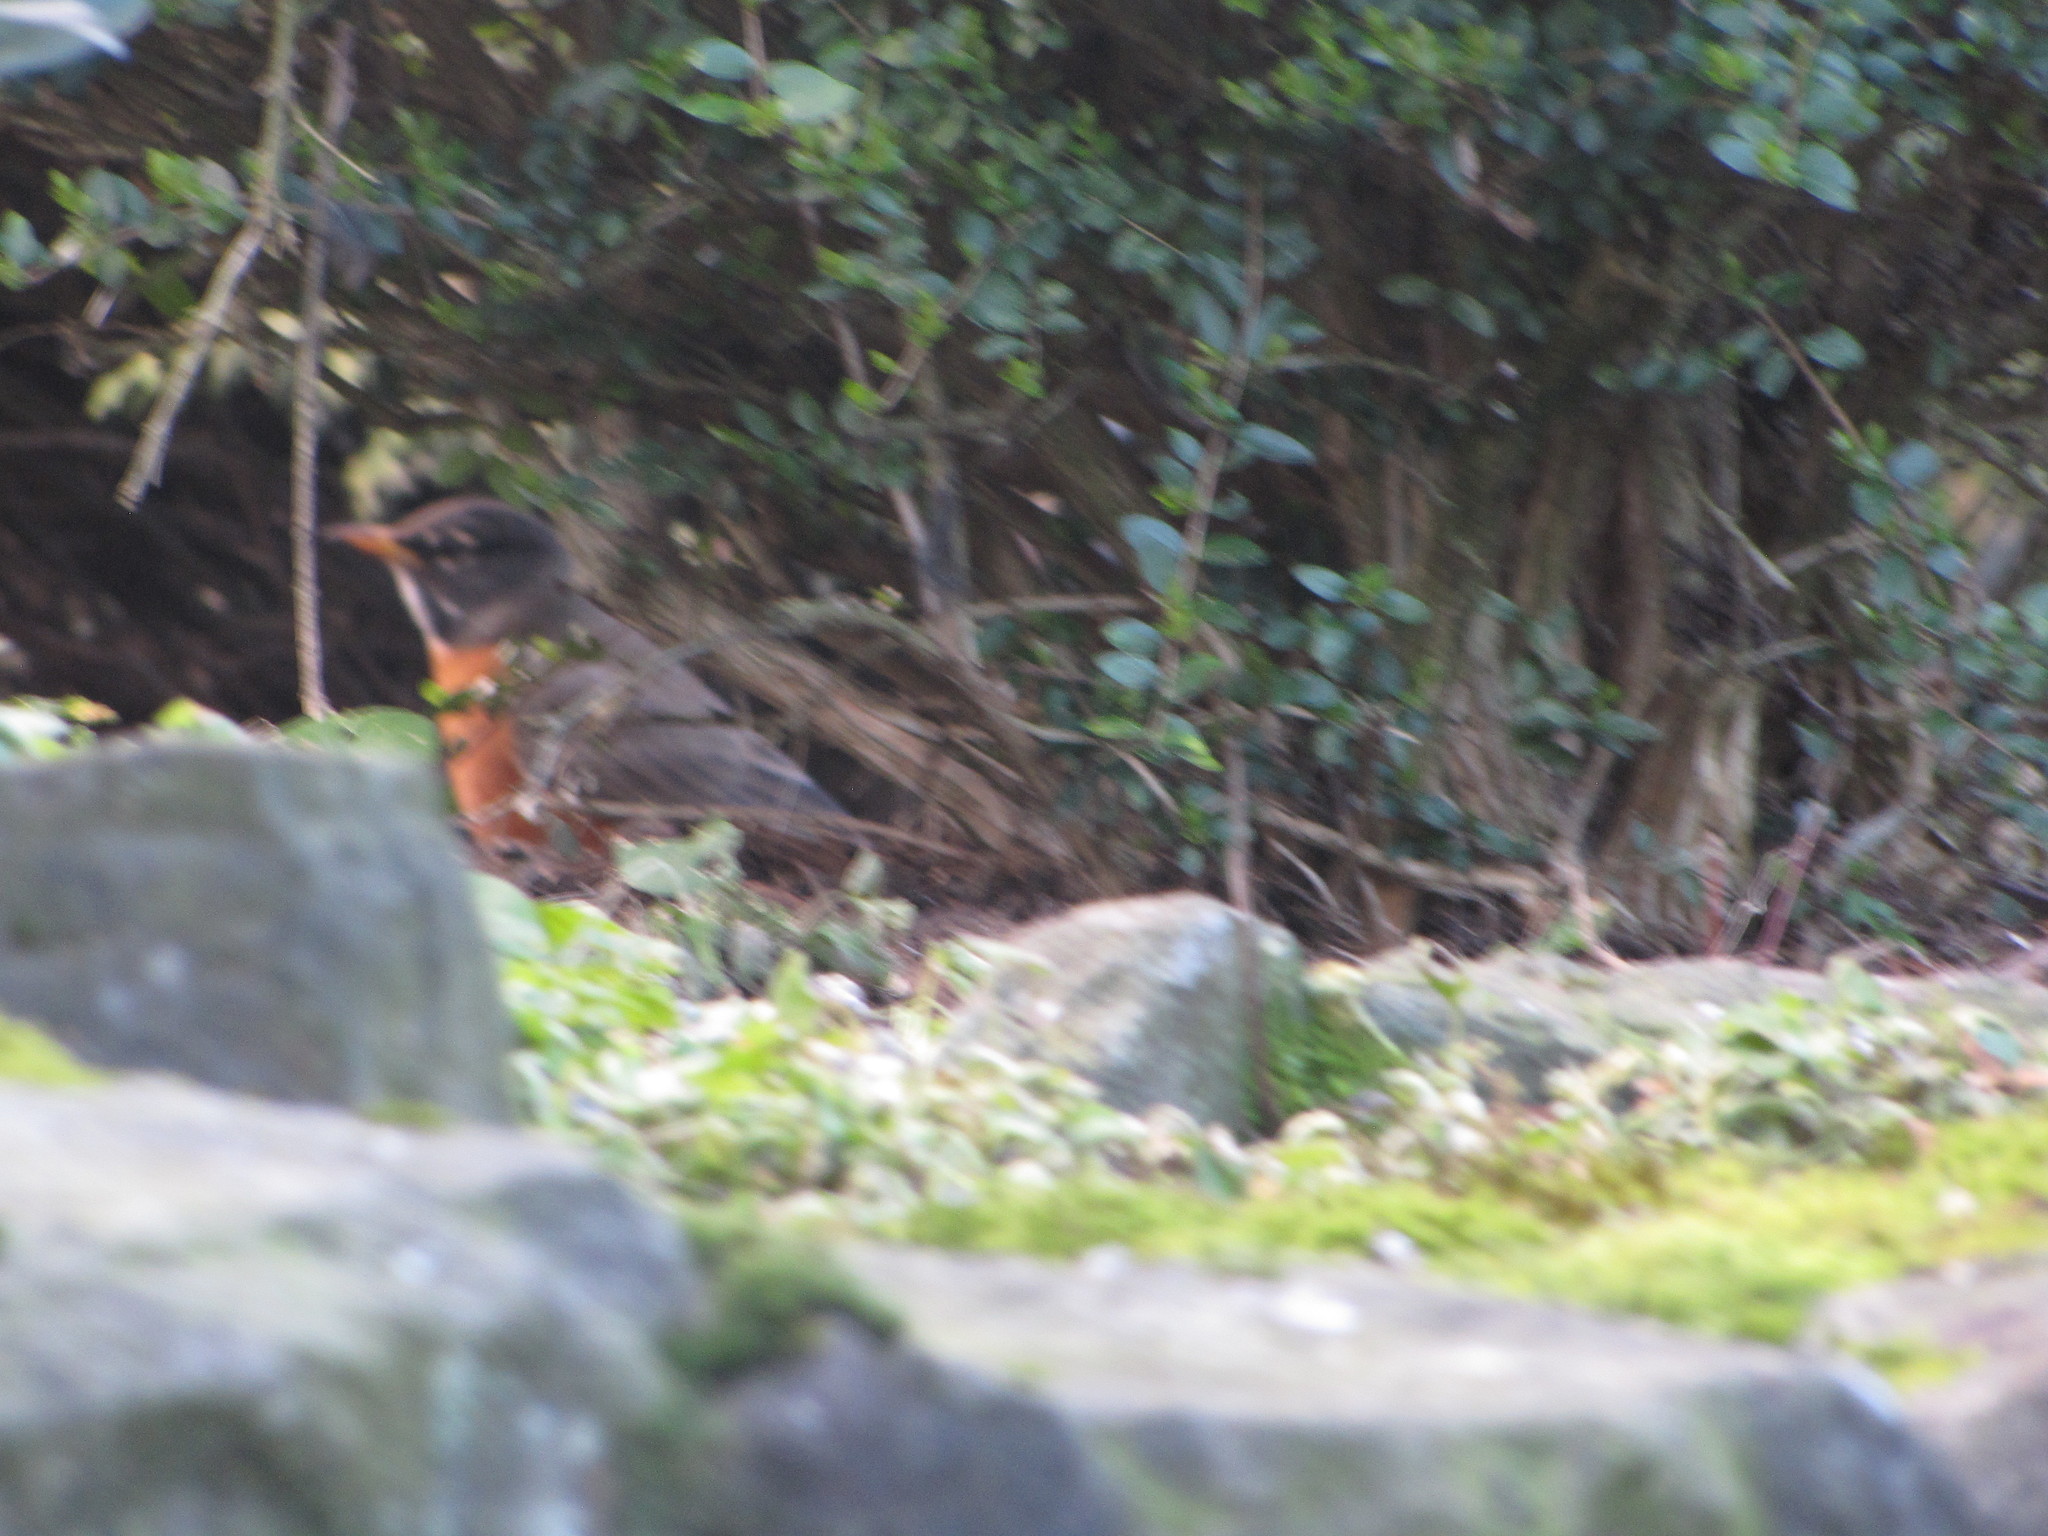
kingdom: Animalia
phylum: Chordata
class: Aves
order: Passeriformes
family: Turdidae
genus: Turdus
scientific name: Turdus migratorius
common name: American robin
